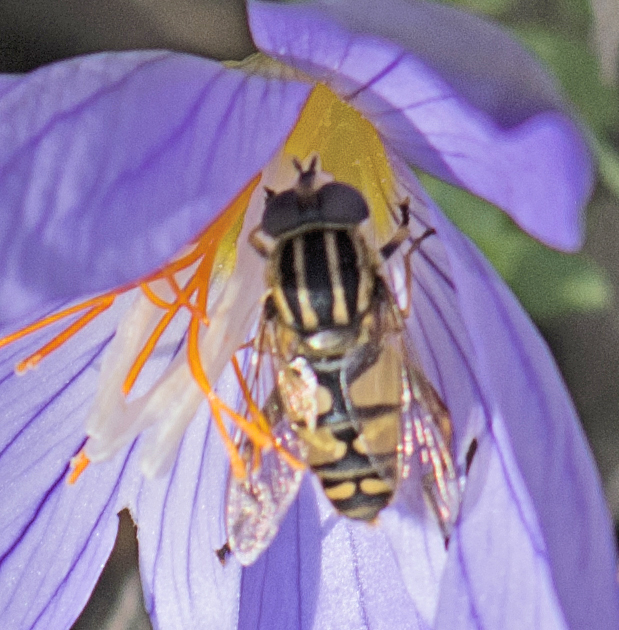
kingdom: Animalia
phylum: Arthropoda
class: Insecta
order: Diptera
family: Syrphidae
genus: Helophilus
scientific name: Helophilus pendulus
